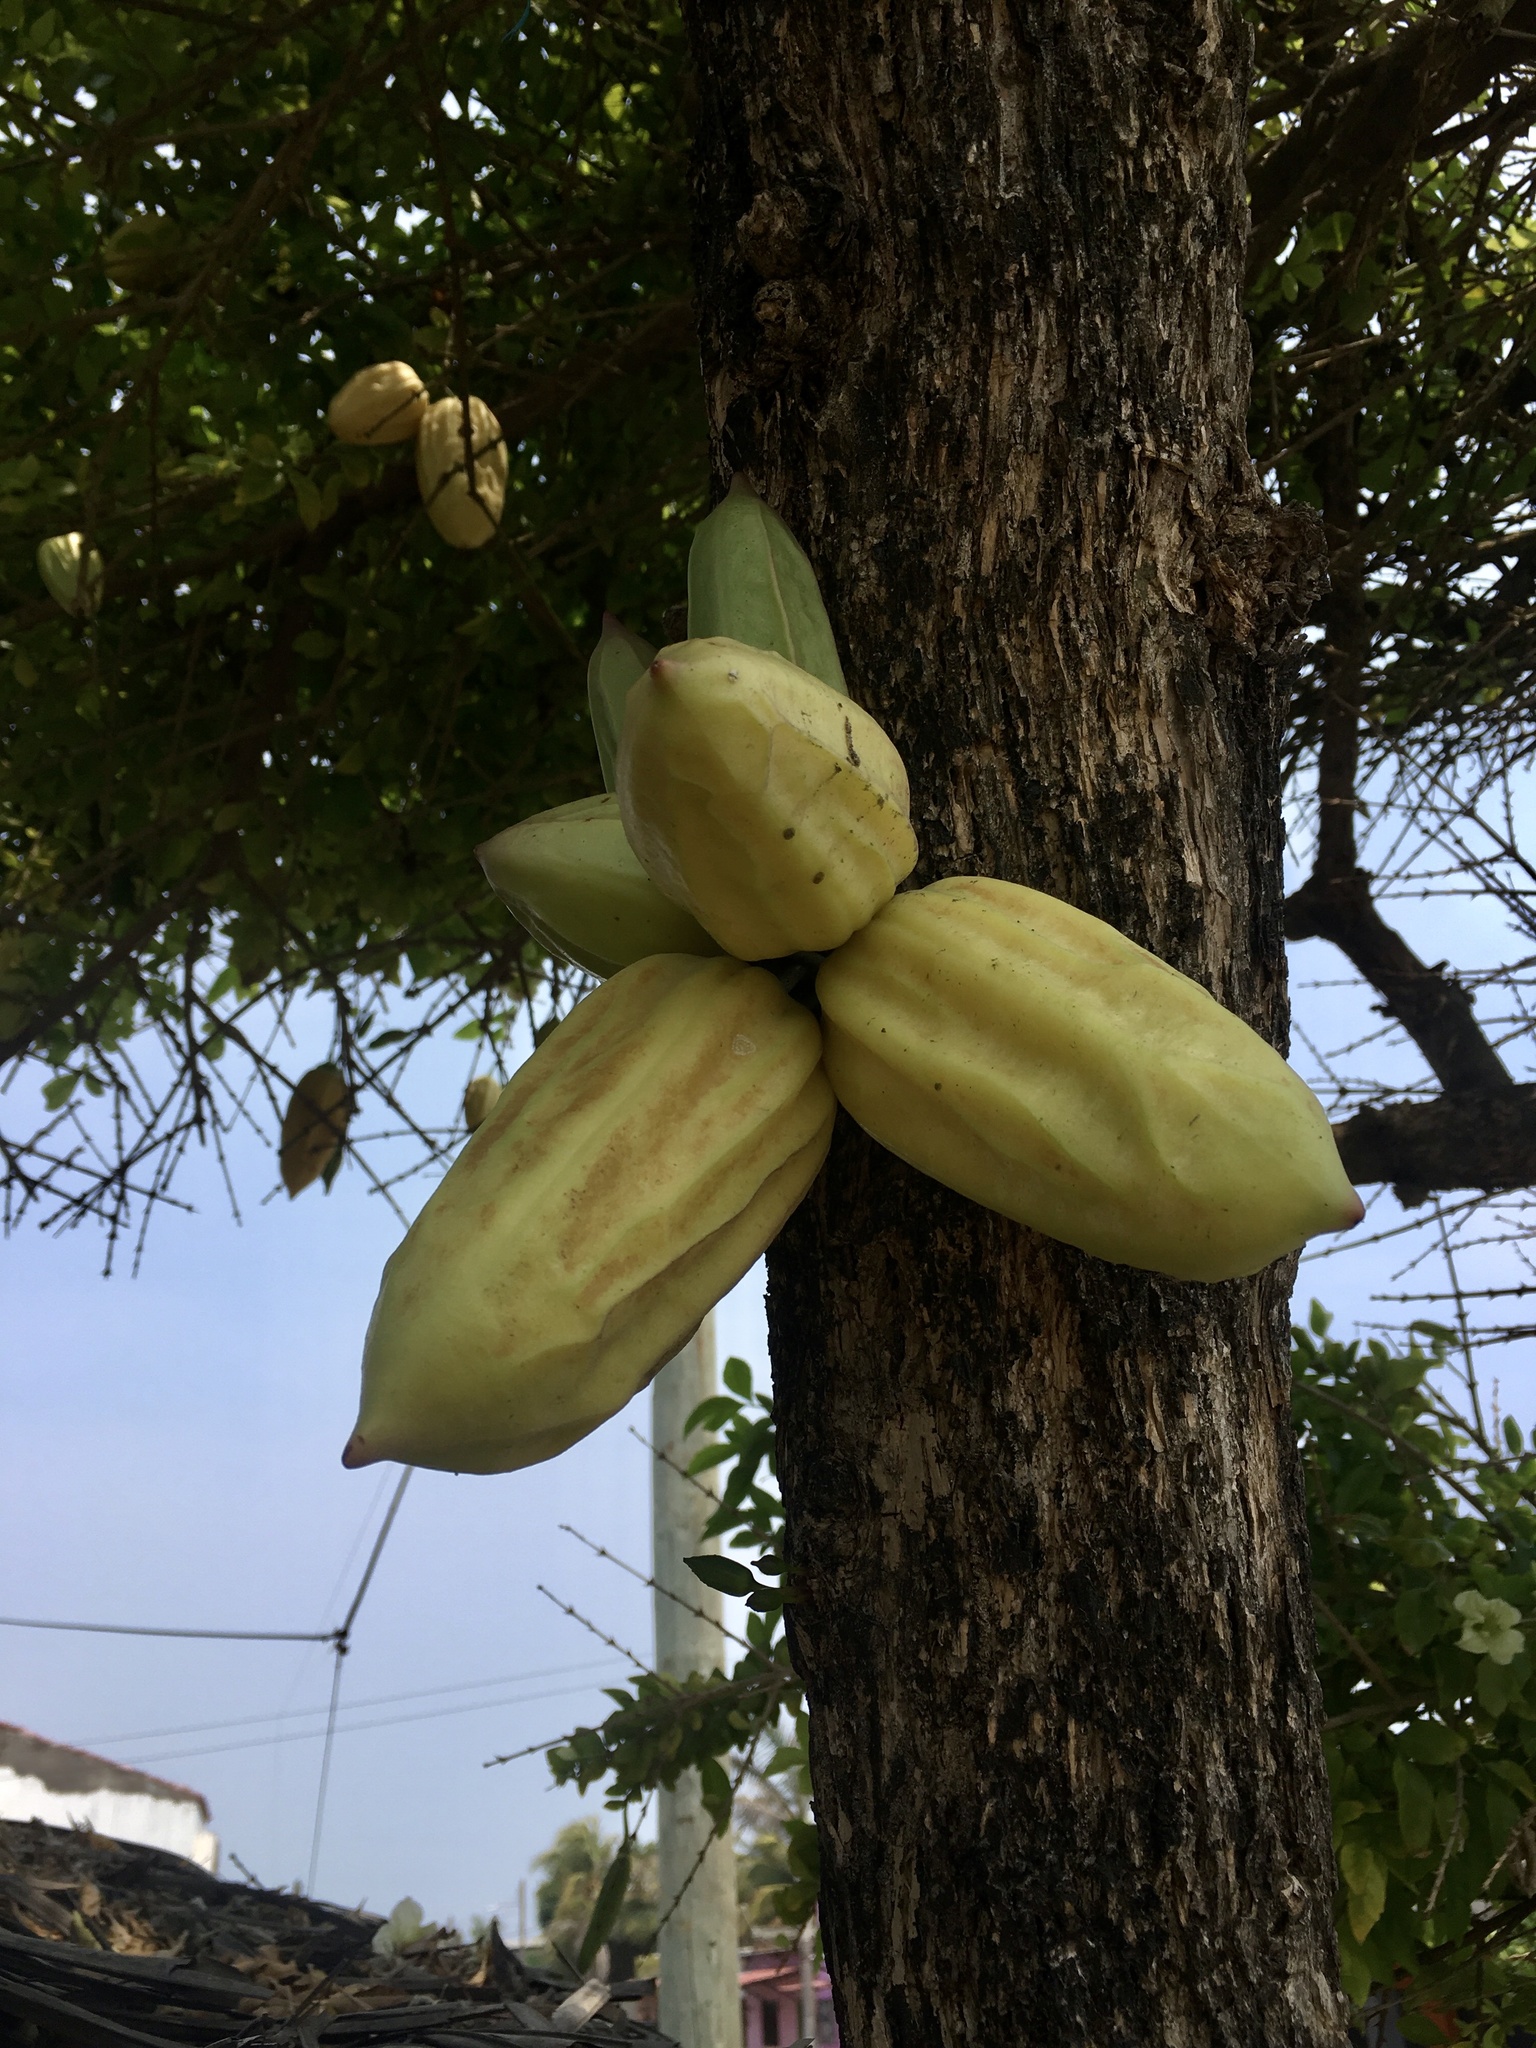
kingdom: Plantae
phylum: Tracheophyta
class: Magnoliopsida
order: Lamiales
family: Bignoniaceae
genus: Parmentiera
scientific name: Parmentiera aculeata
